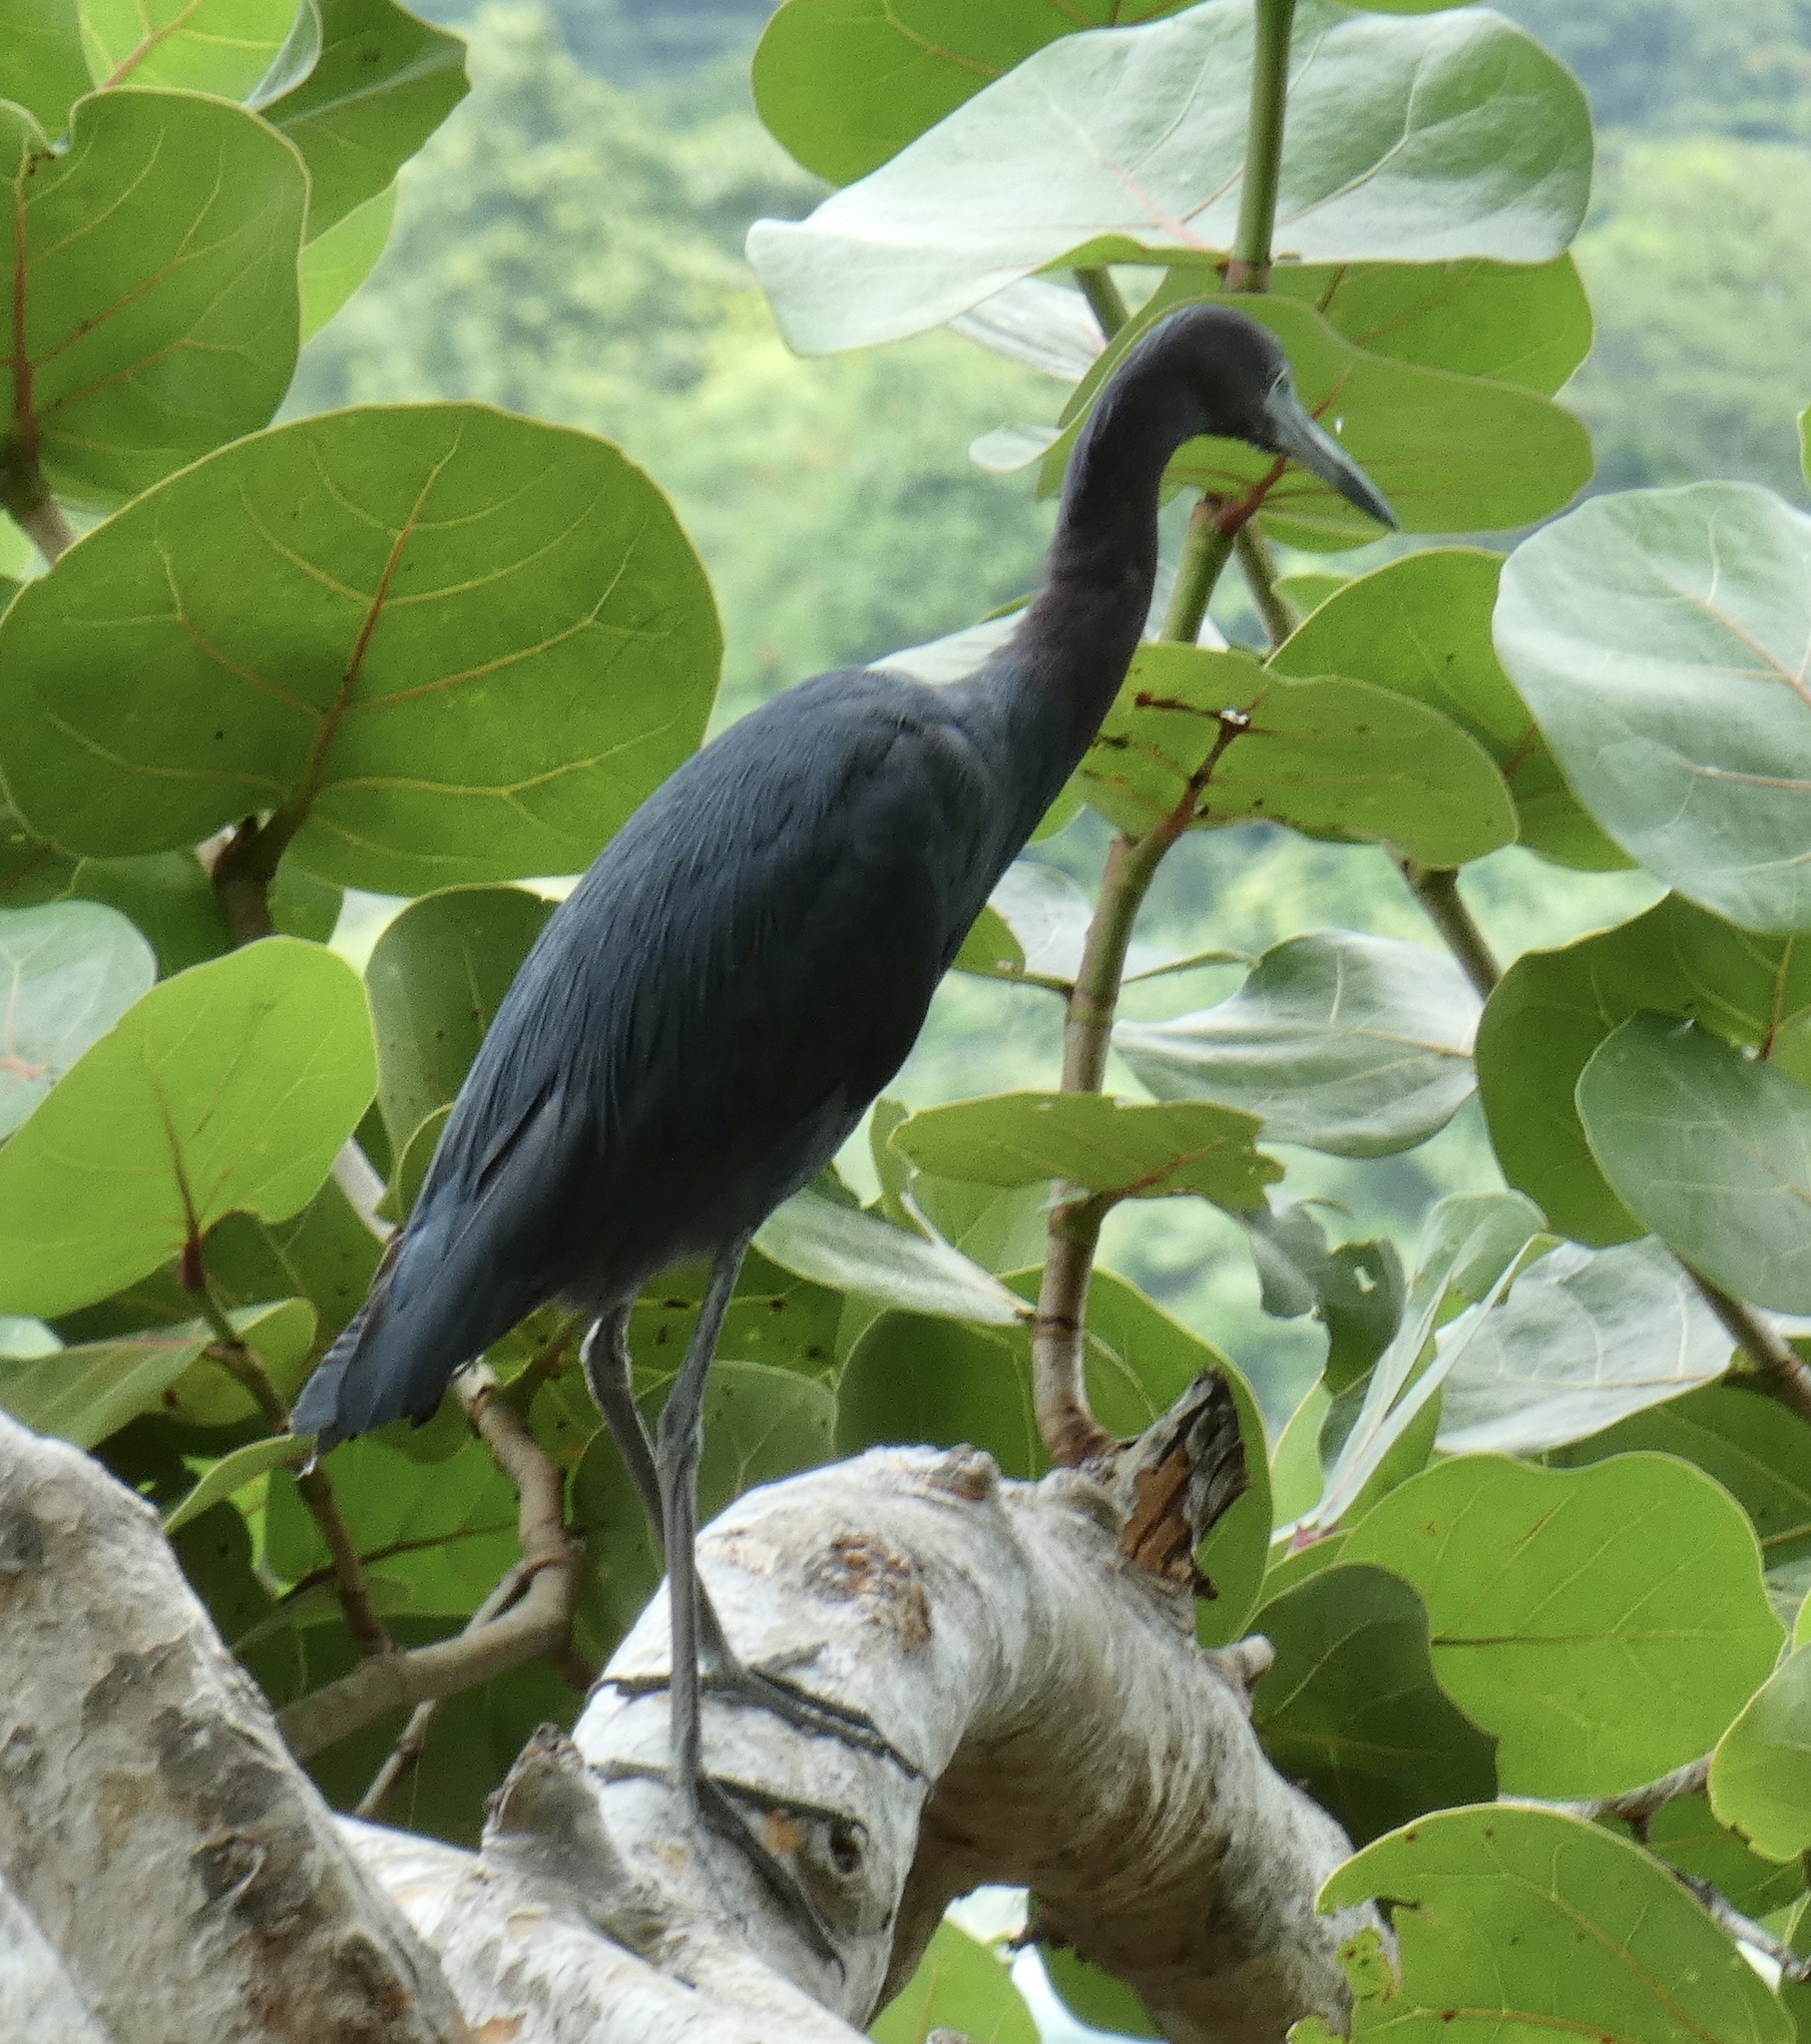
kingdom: Animalia
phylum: Chordata
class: Aves
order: Pelecaniformes
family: Ardeidae
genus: Egretta
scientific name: Egretta caerulea
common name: Little blue heron
